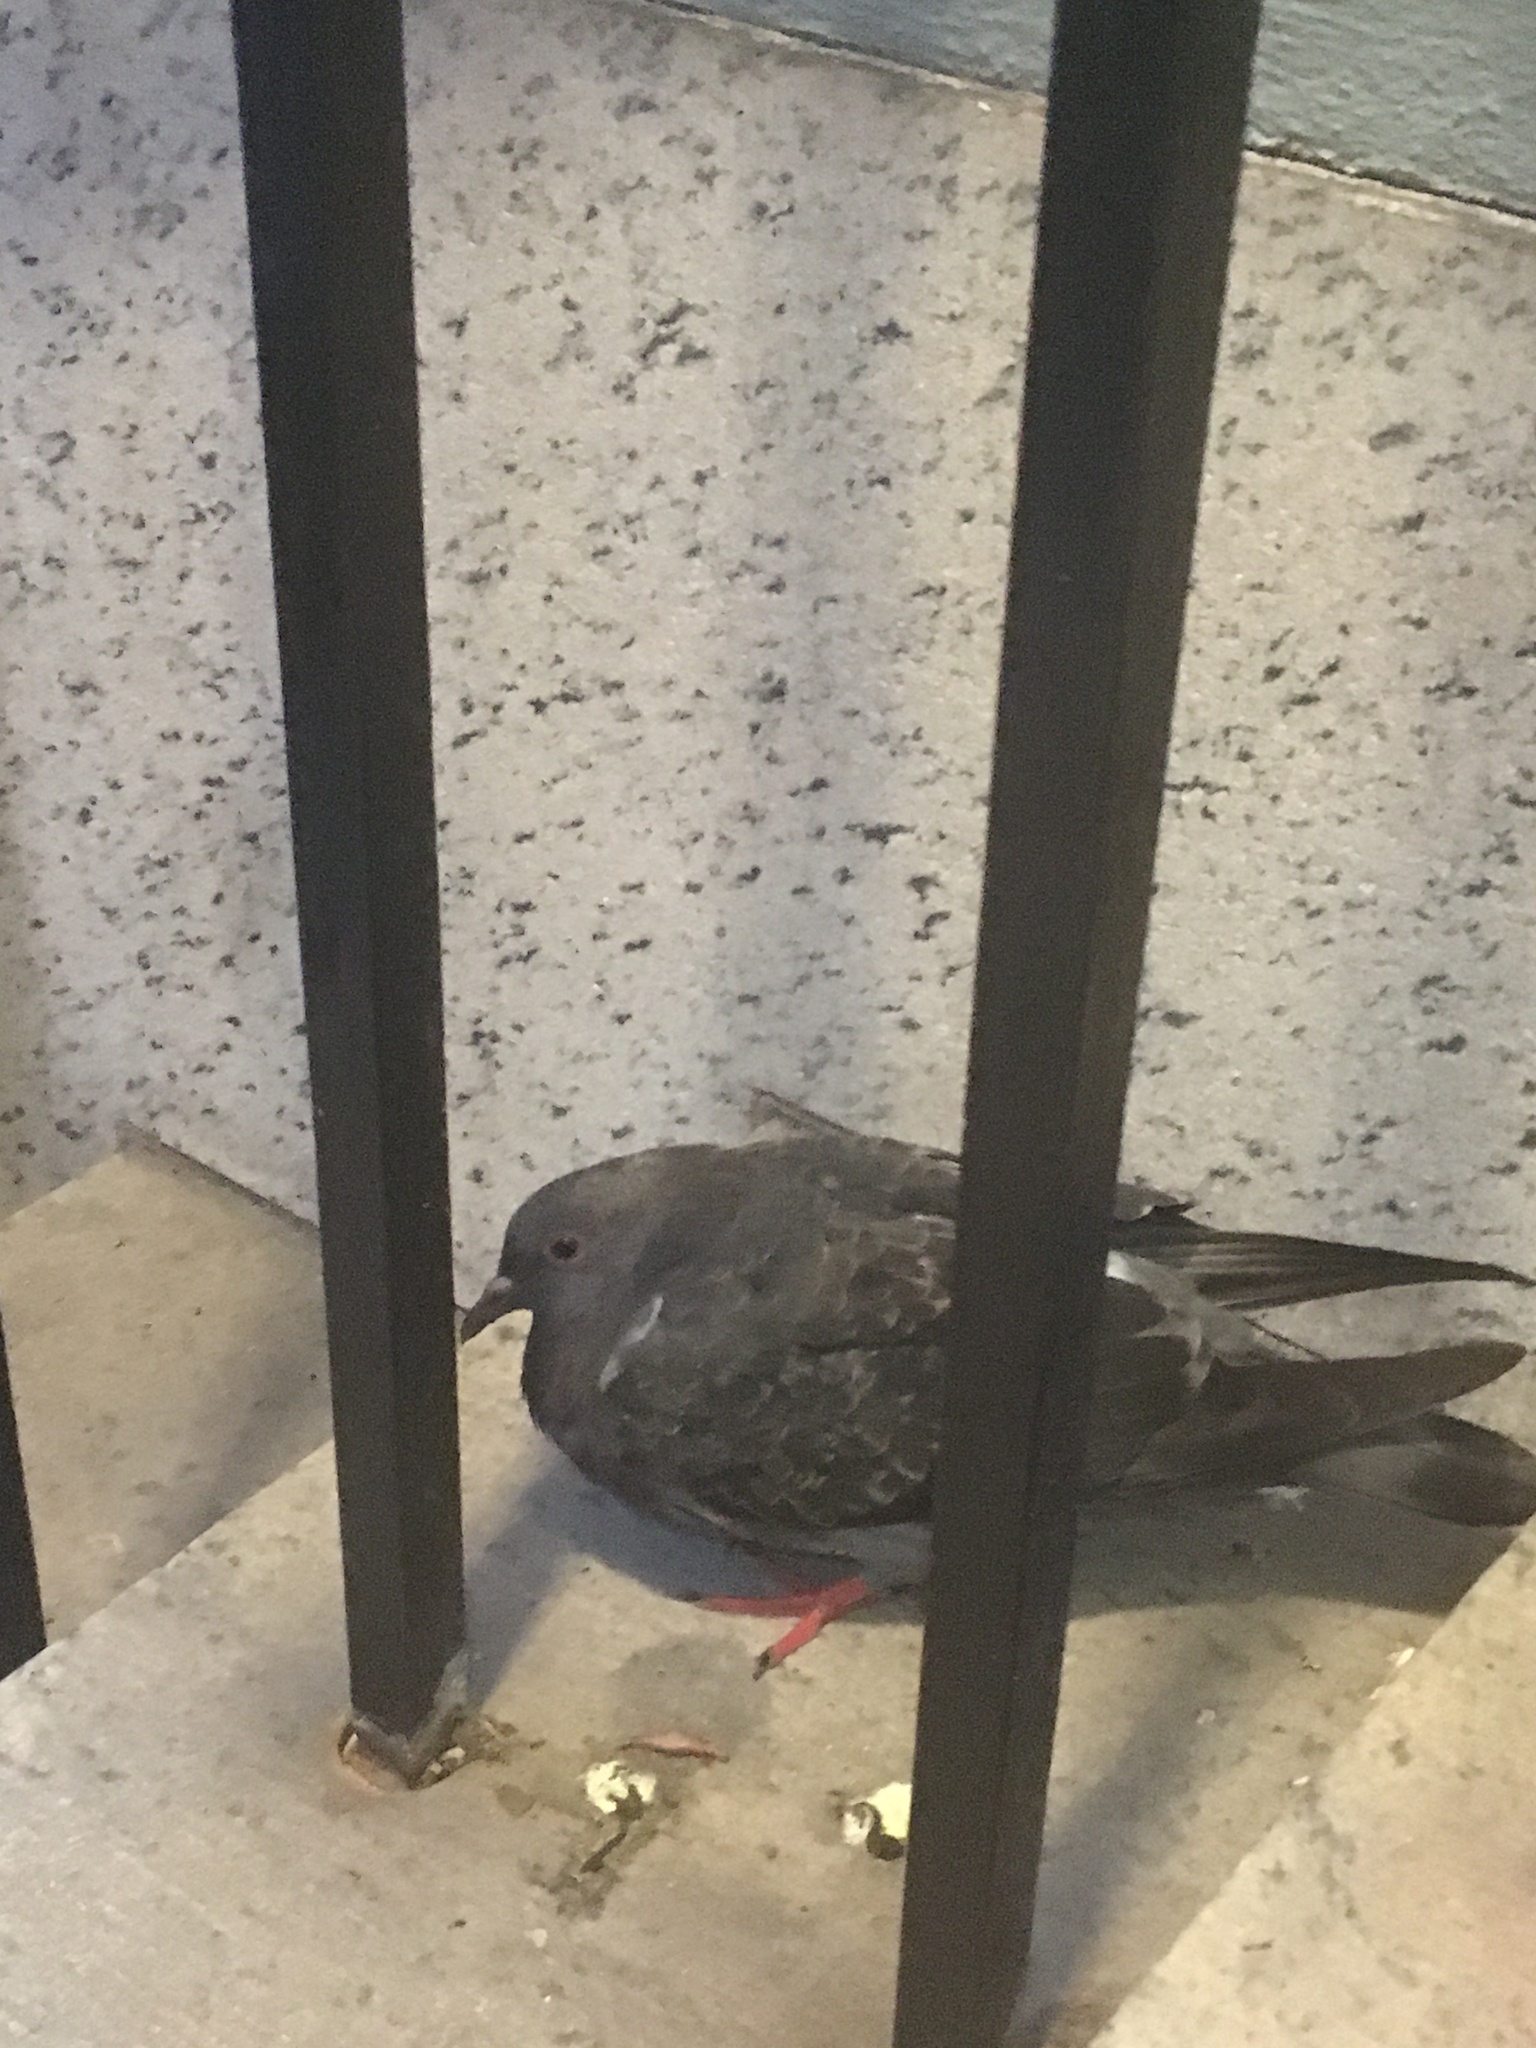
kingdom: Animalia
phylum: Chordata
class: Aves
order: Columbiformes
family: Columbidae
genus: Columba
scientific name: Columba livia
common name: Rock pigeon
